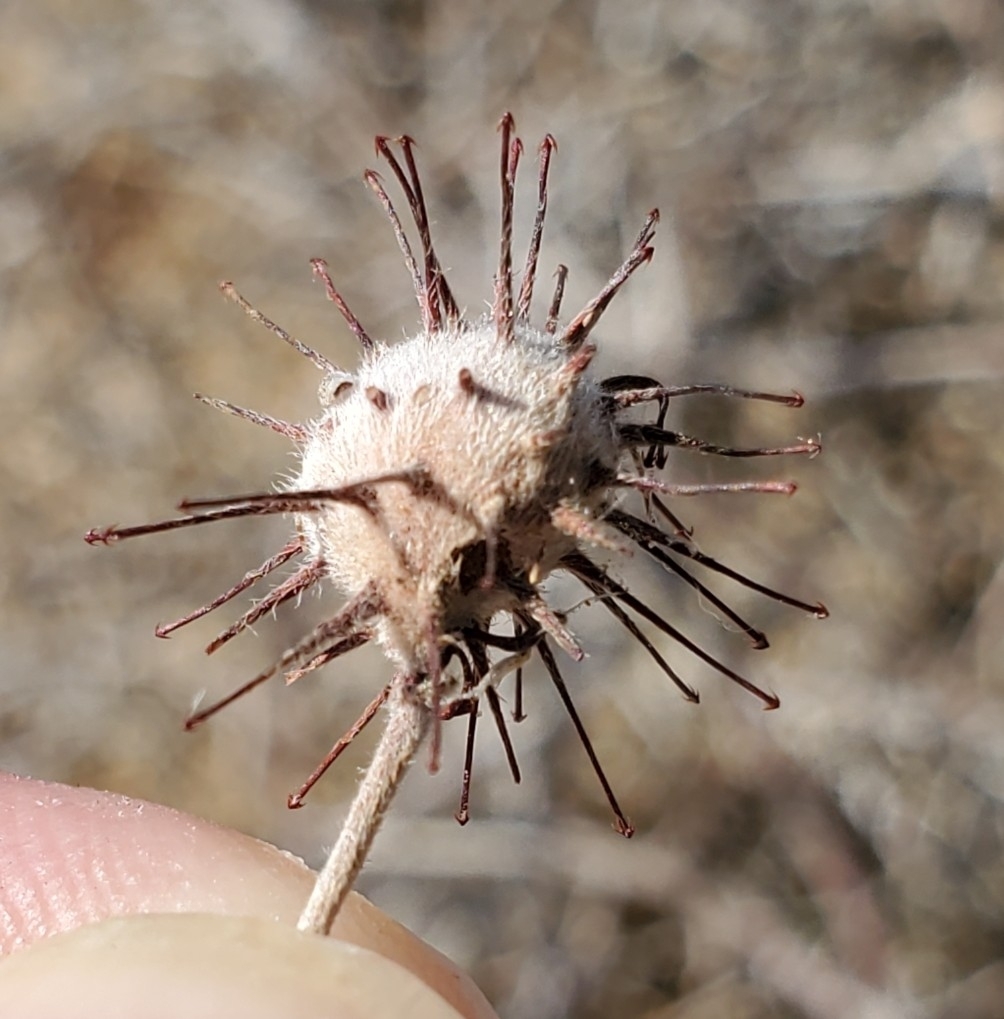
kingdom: Plantae
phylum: Tracheophyta
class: Magnoliopsida
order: Zygophyllales
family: Krameriaceae
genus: Krameria
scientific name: Krameria bicolor
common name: White ratany
